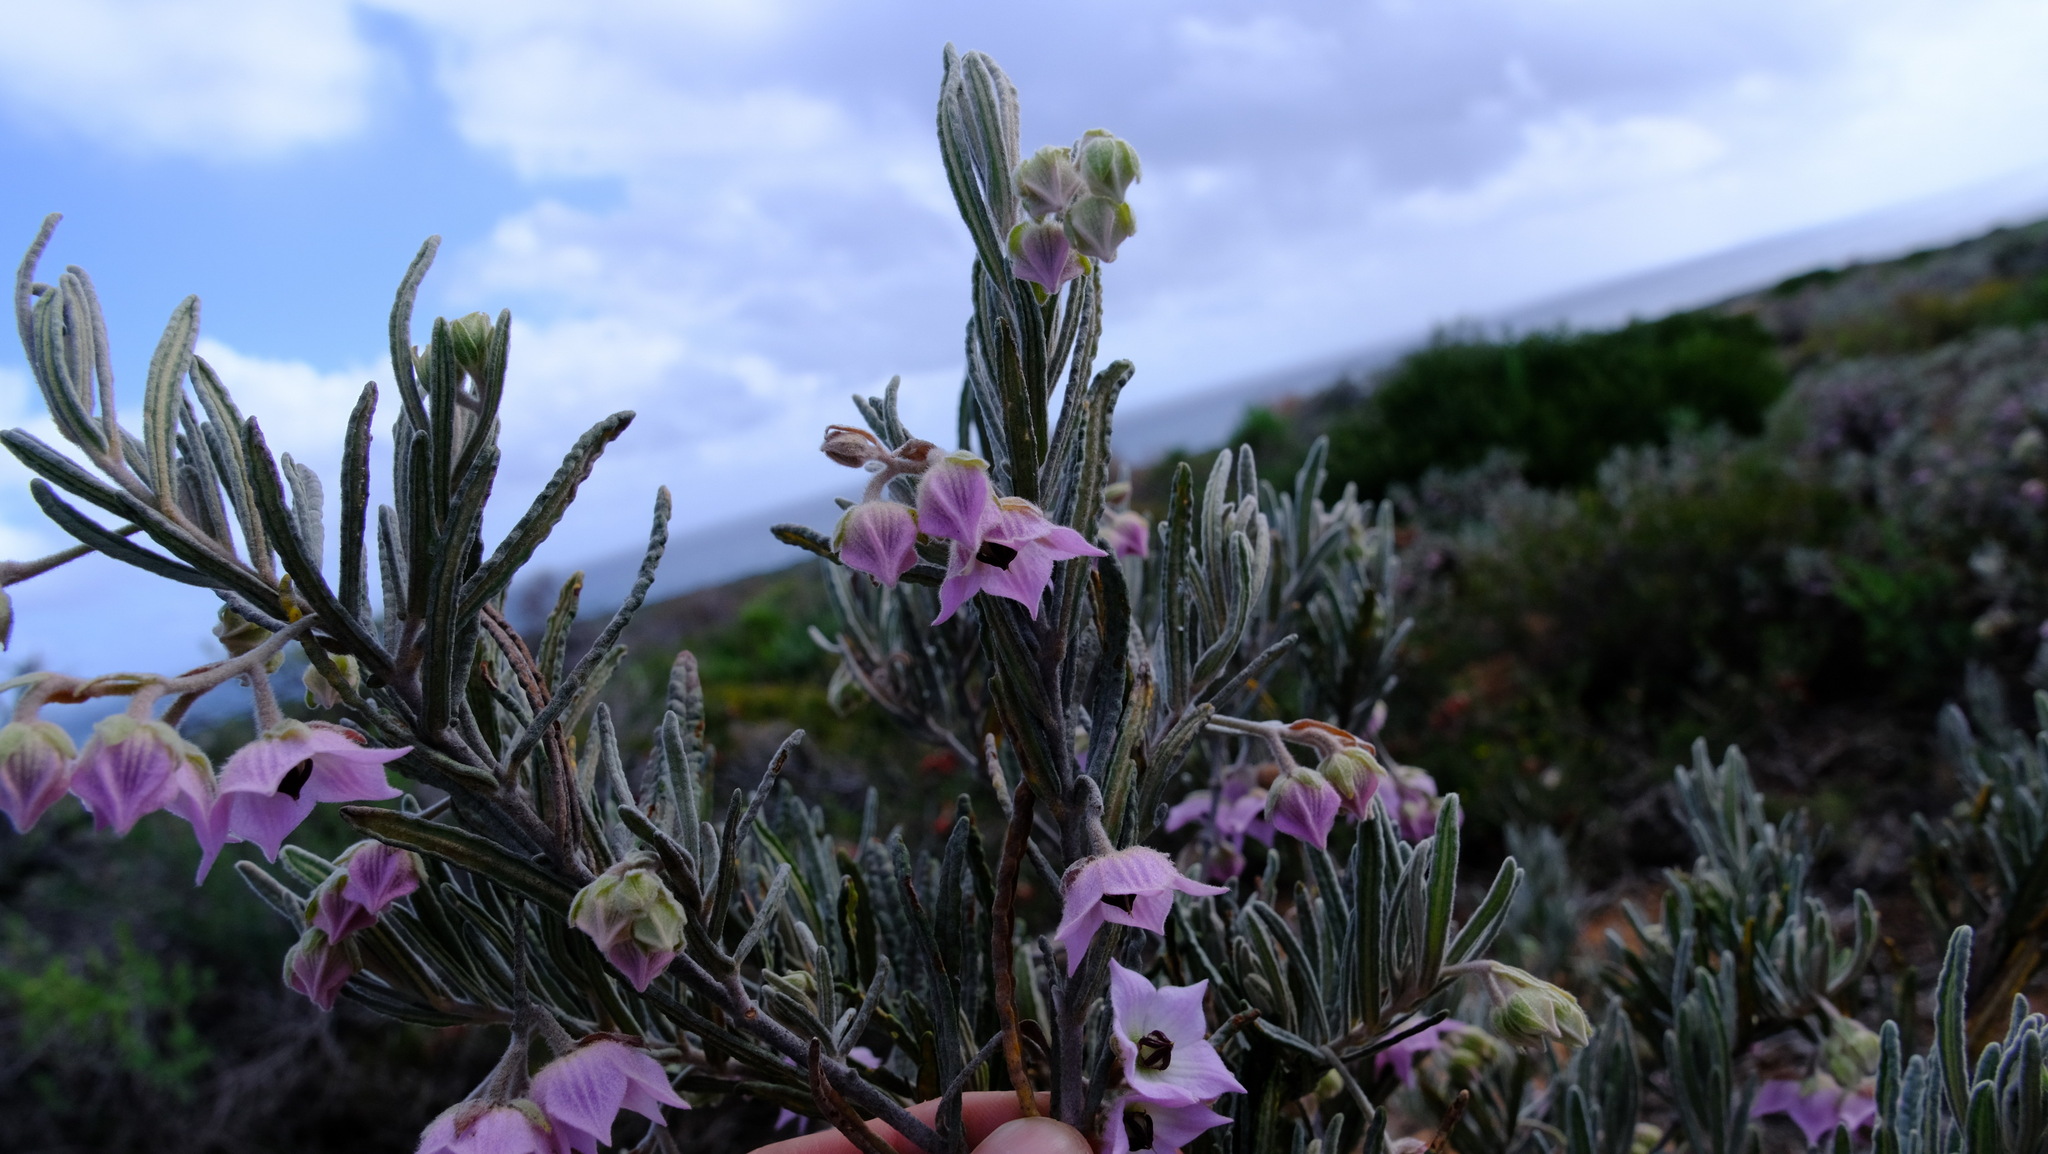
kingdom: Plantae
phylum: Tracheophyta
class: Magnoliopsida
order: Malvales
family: Malvaceae
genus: Guichenotia
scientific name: Guichenotia intermedia
